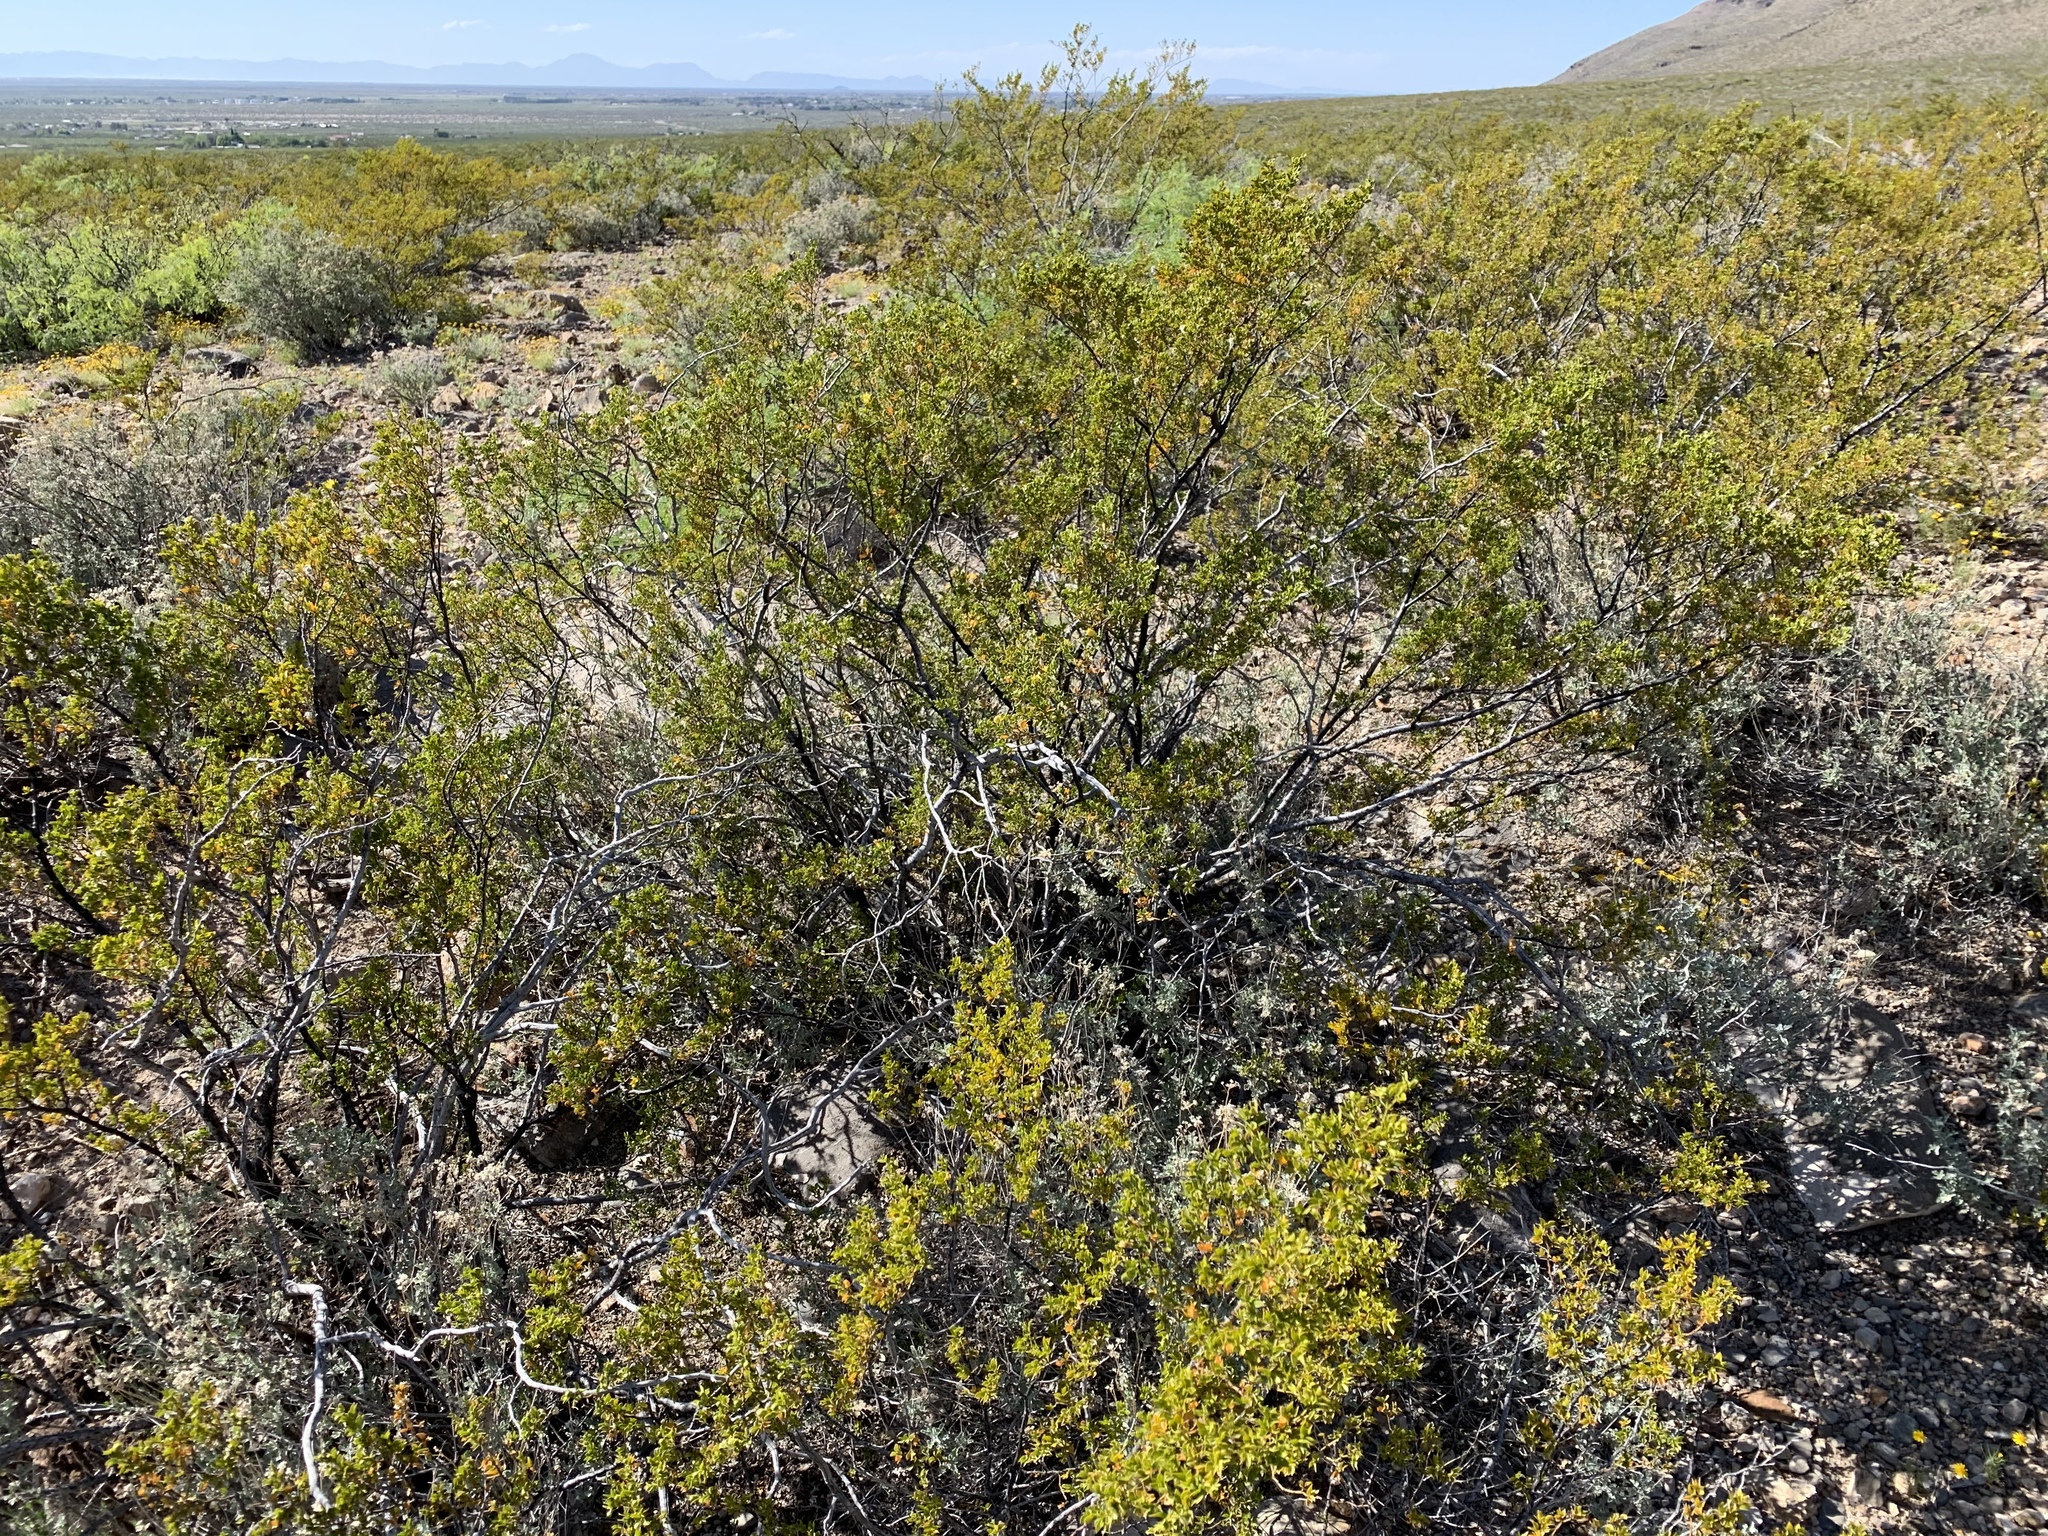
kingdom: Plantae
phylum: Tracheophyta
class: Magnoliopsida
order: Zygophyllales
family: Zygophyllaceae
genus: Larrea
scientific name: Larrea tridentata
